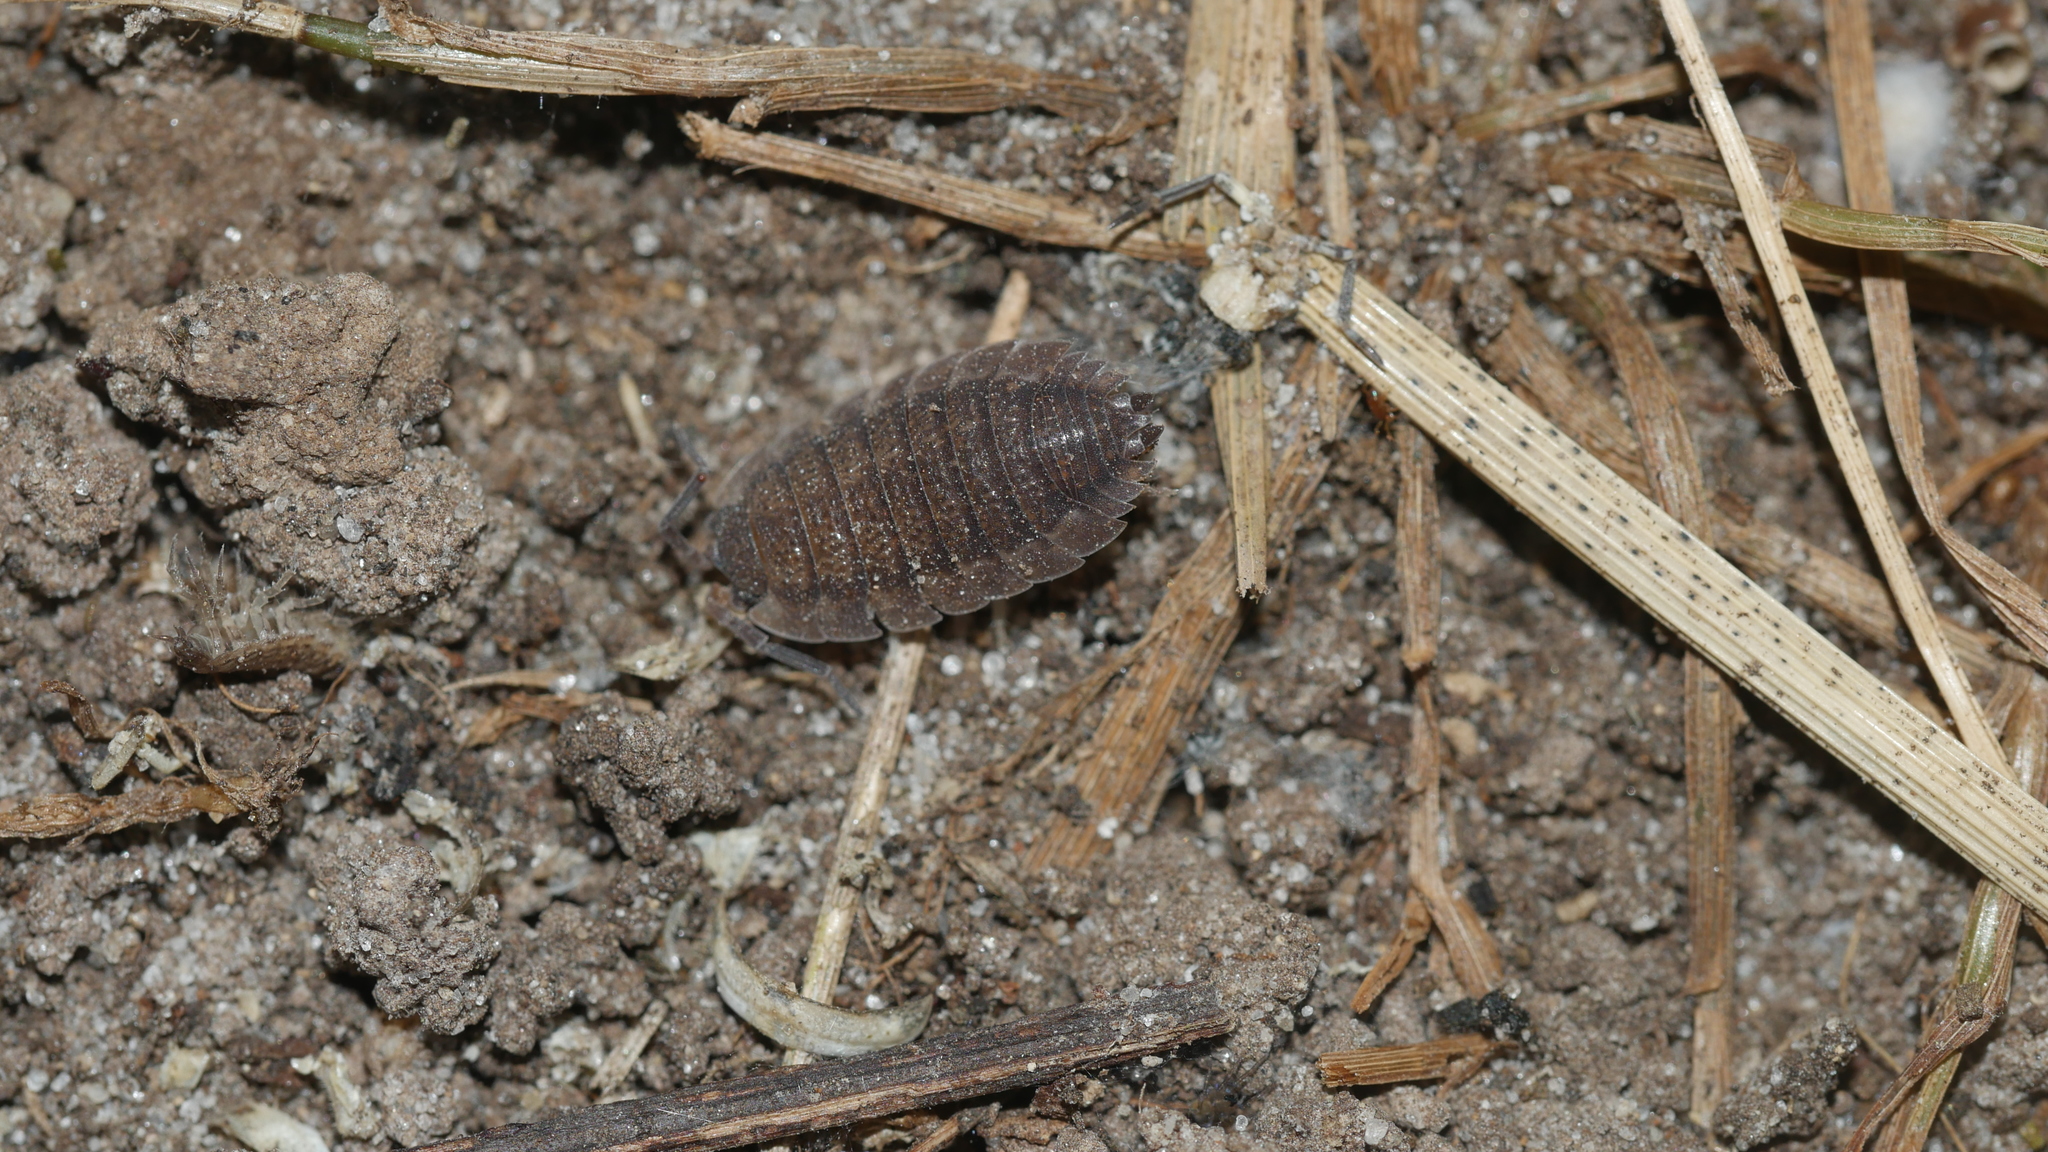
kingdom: Animalia
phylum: Arthropoda
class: Malacostraca
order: Isopoda
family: Porcellionidae
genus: Porcellio
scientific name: Porcellio scaber
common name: Common rough woodlouse
